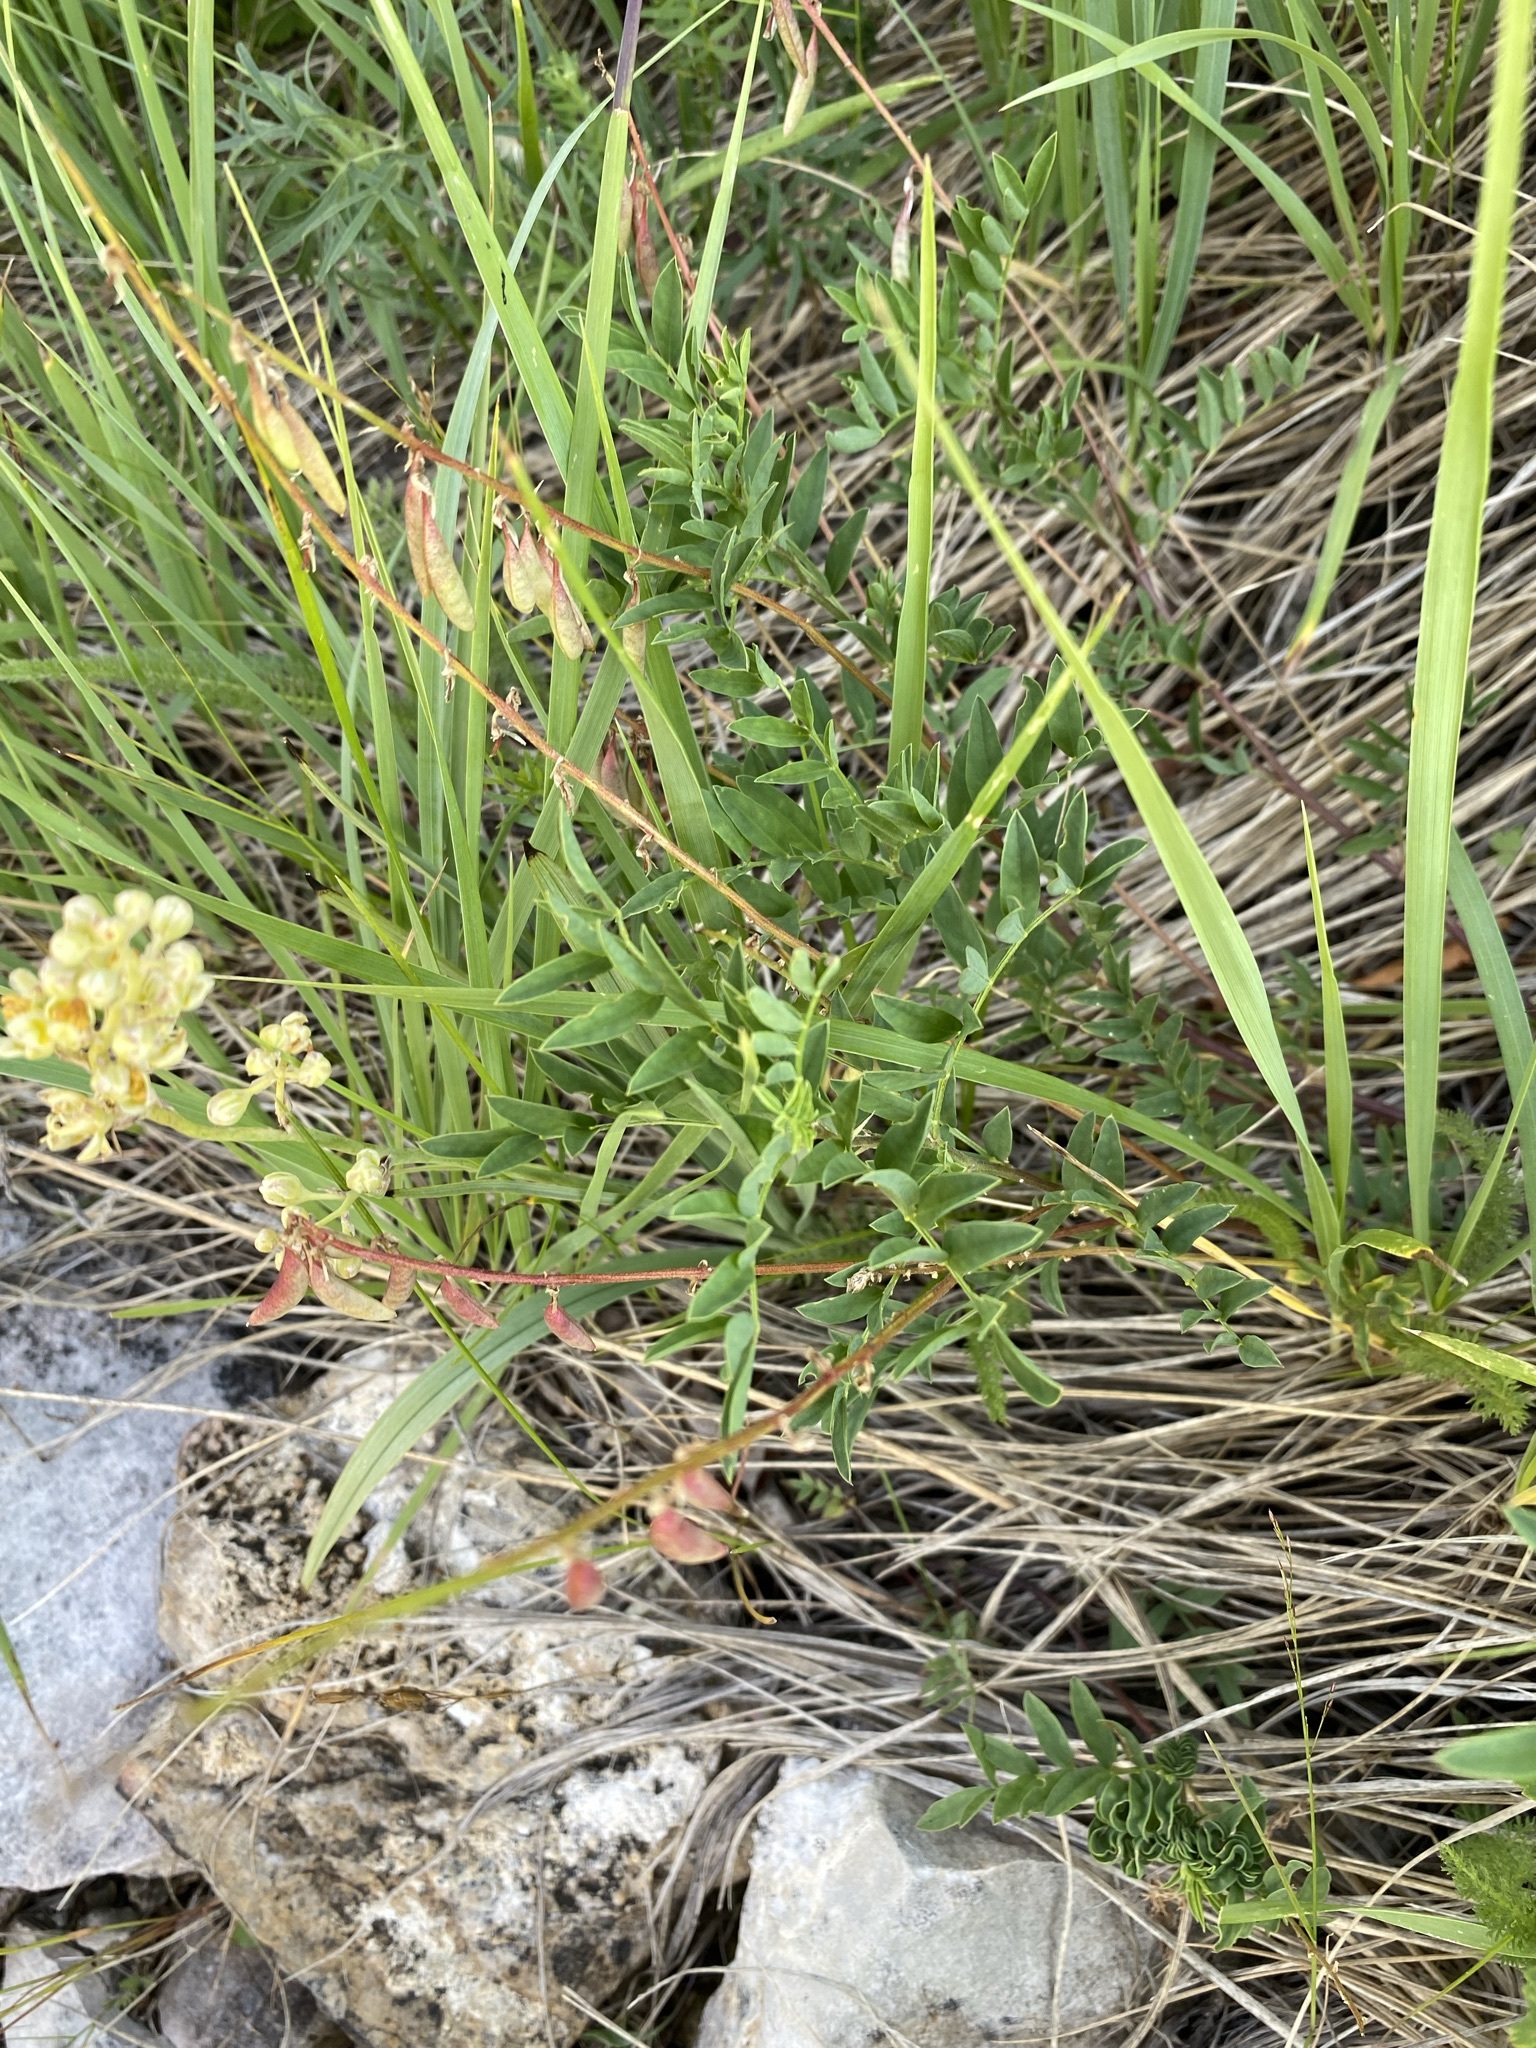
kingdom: Plantae
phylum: Tracheophyta
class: Magnoliopsida
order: Fabales
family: Fabaceae
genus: Astragalus
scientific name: Astragalus australis
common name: Indian milk-vetch
